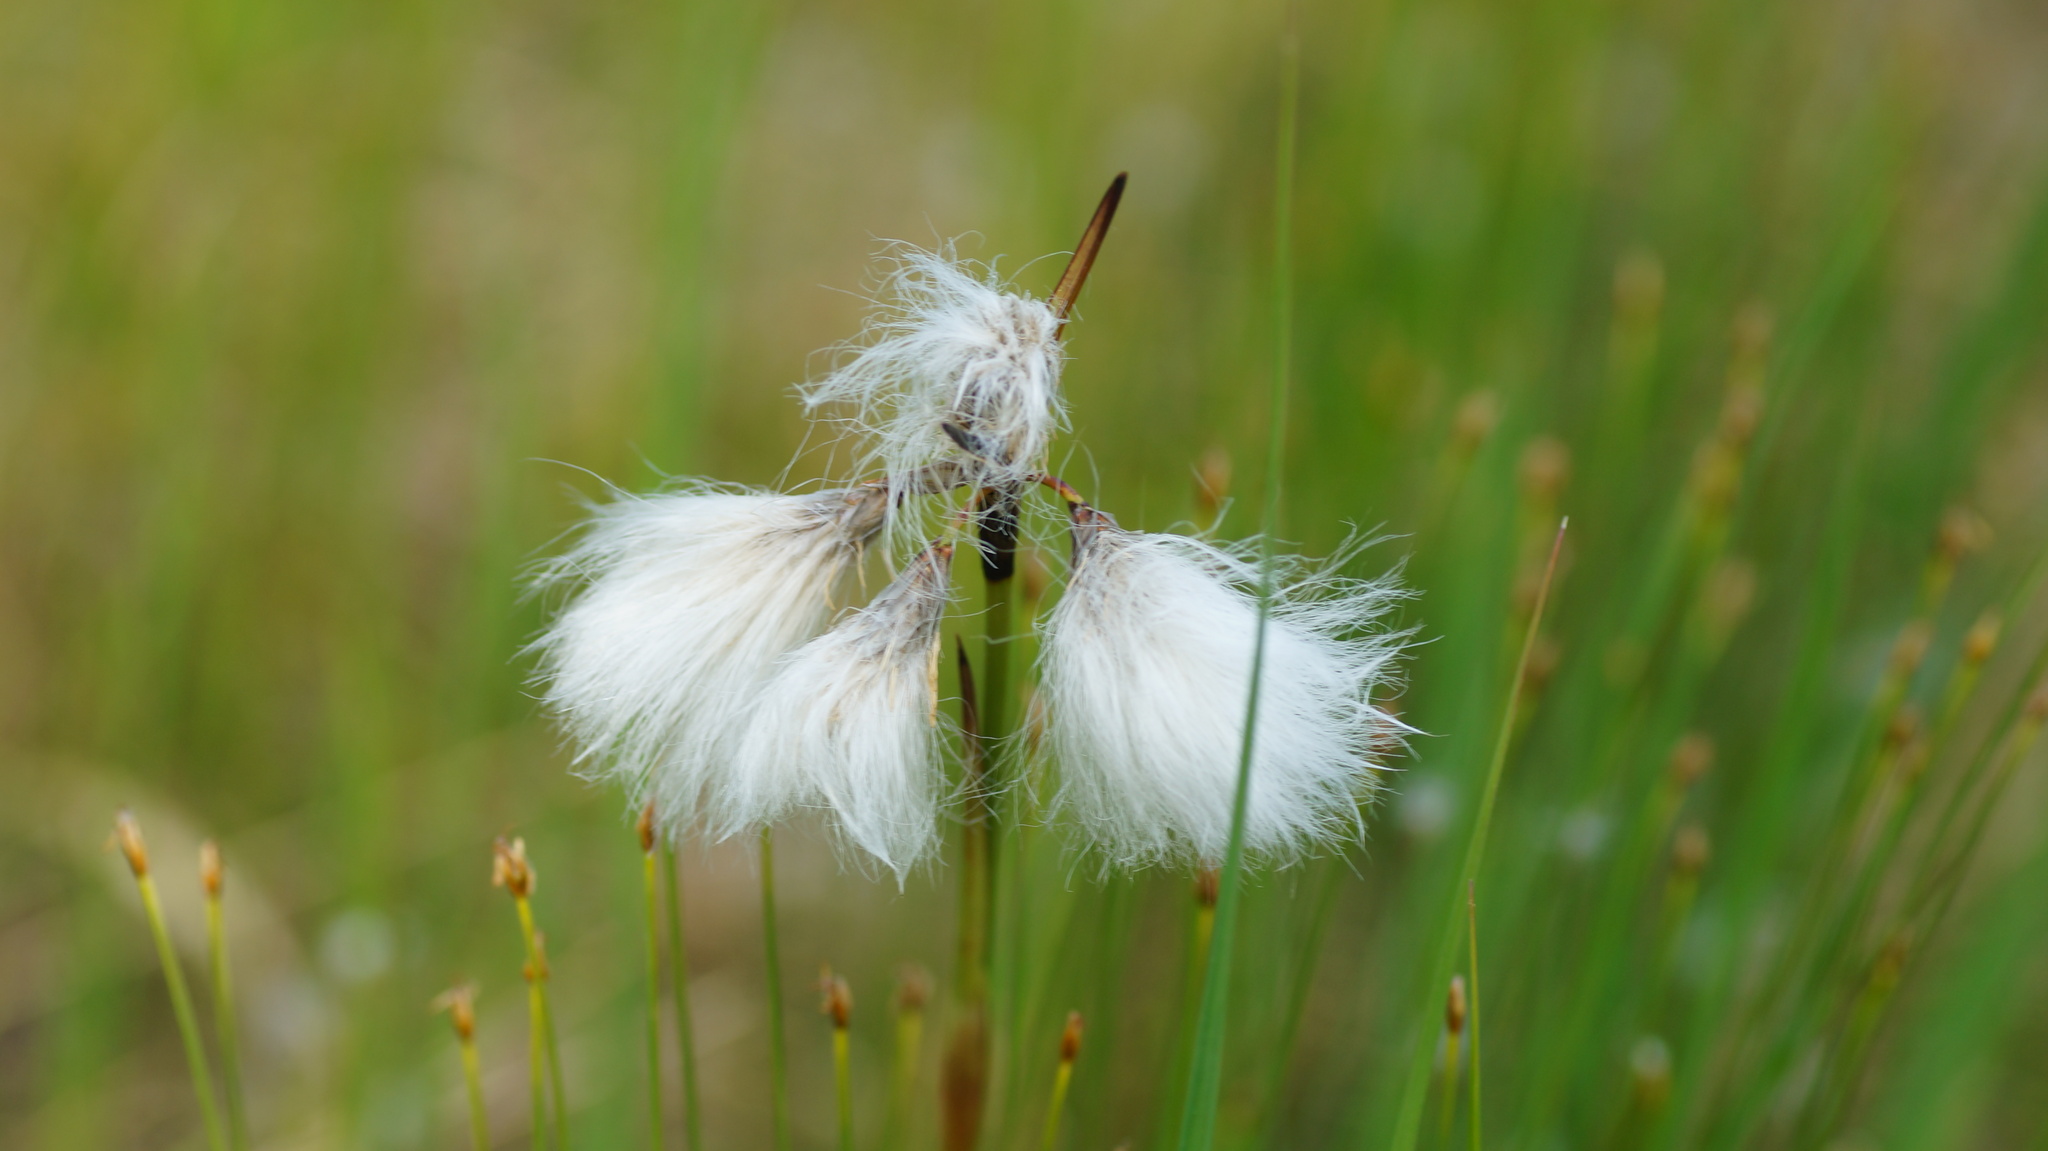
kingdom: Plantae
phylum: Tracheophyta
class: Liliopsida
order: Poales
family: Cyperaceae
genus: Eriophorum
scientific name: Eriophorum angustifolium
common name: Common cottongrass
